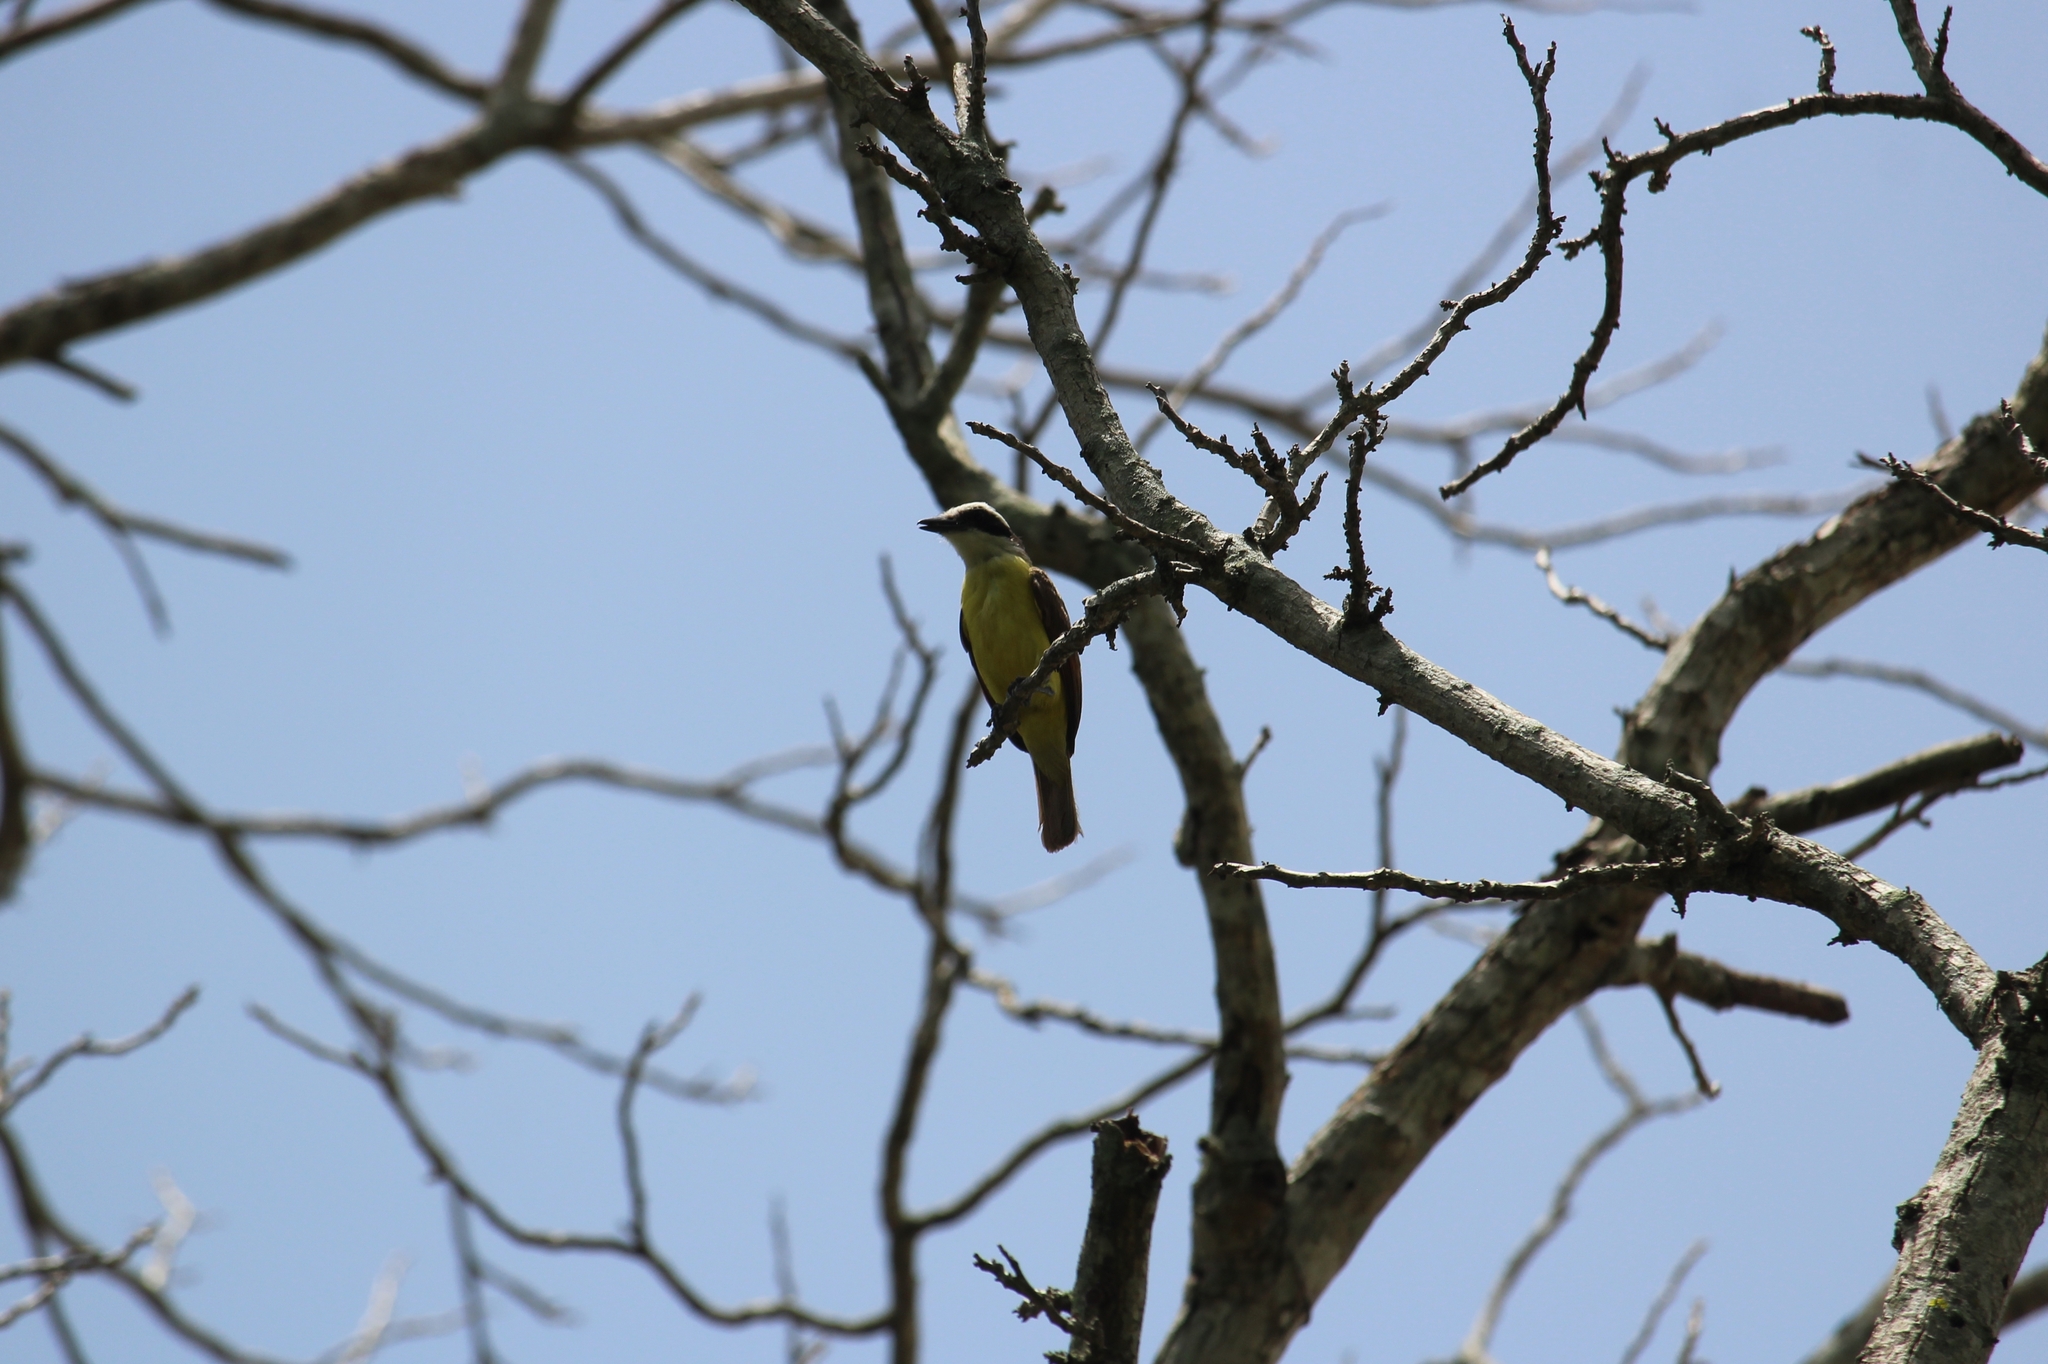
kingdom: Animalia
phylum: Chordata
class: Aves
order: Passeriformes
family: Tyrannidae
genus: Pitangus
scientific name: Pitangus sulphuratus
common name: Great kiskadee
